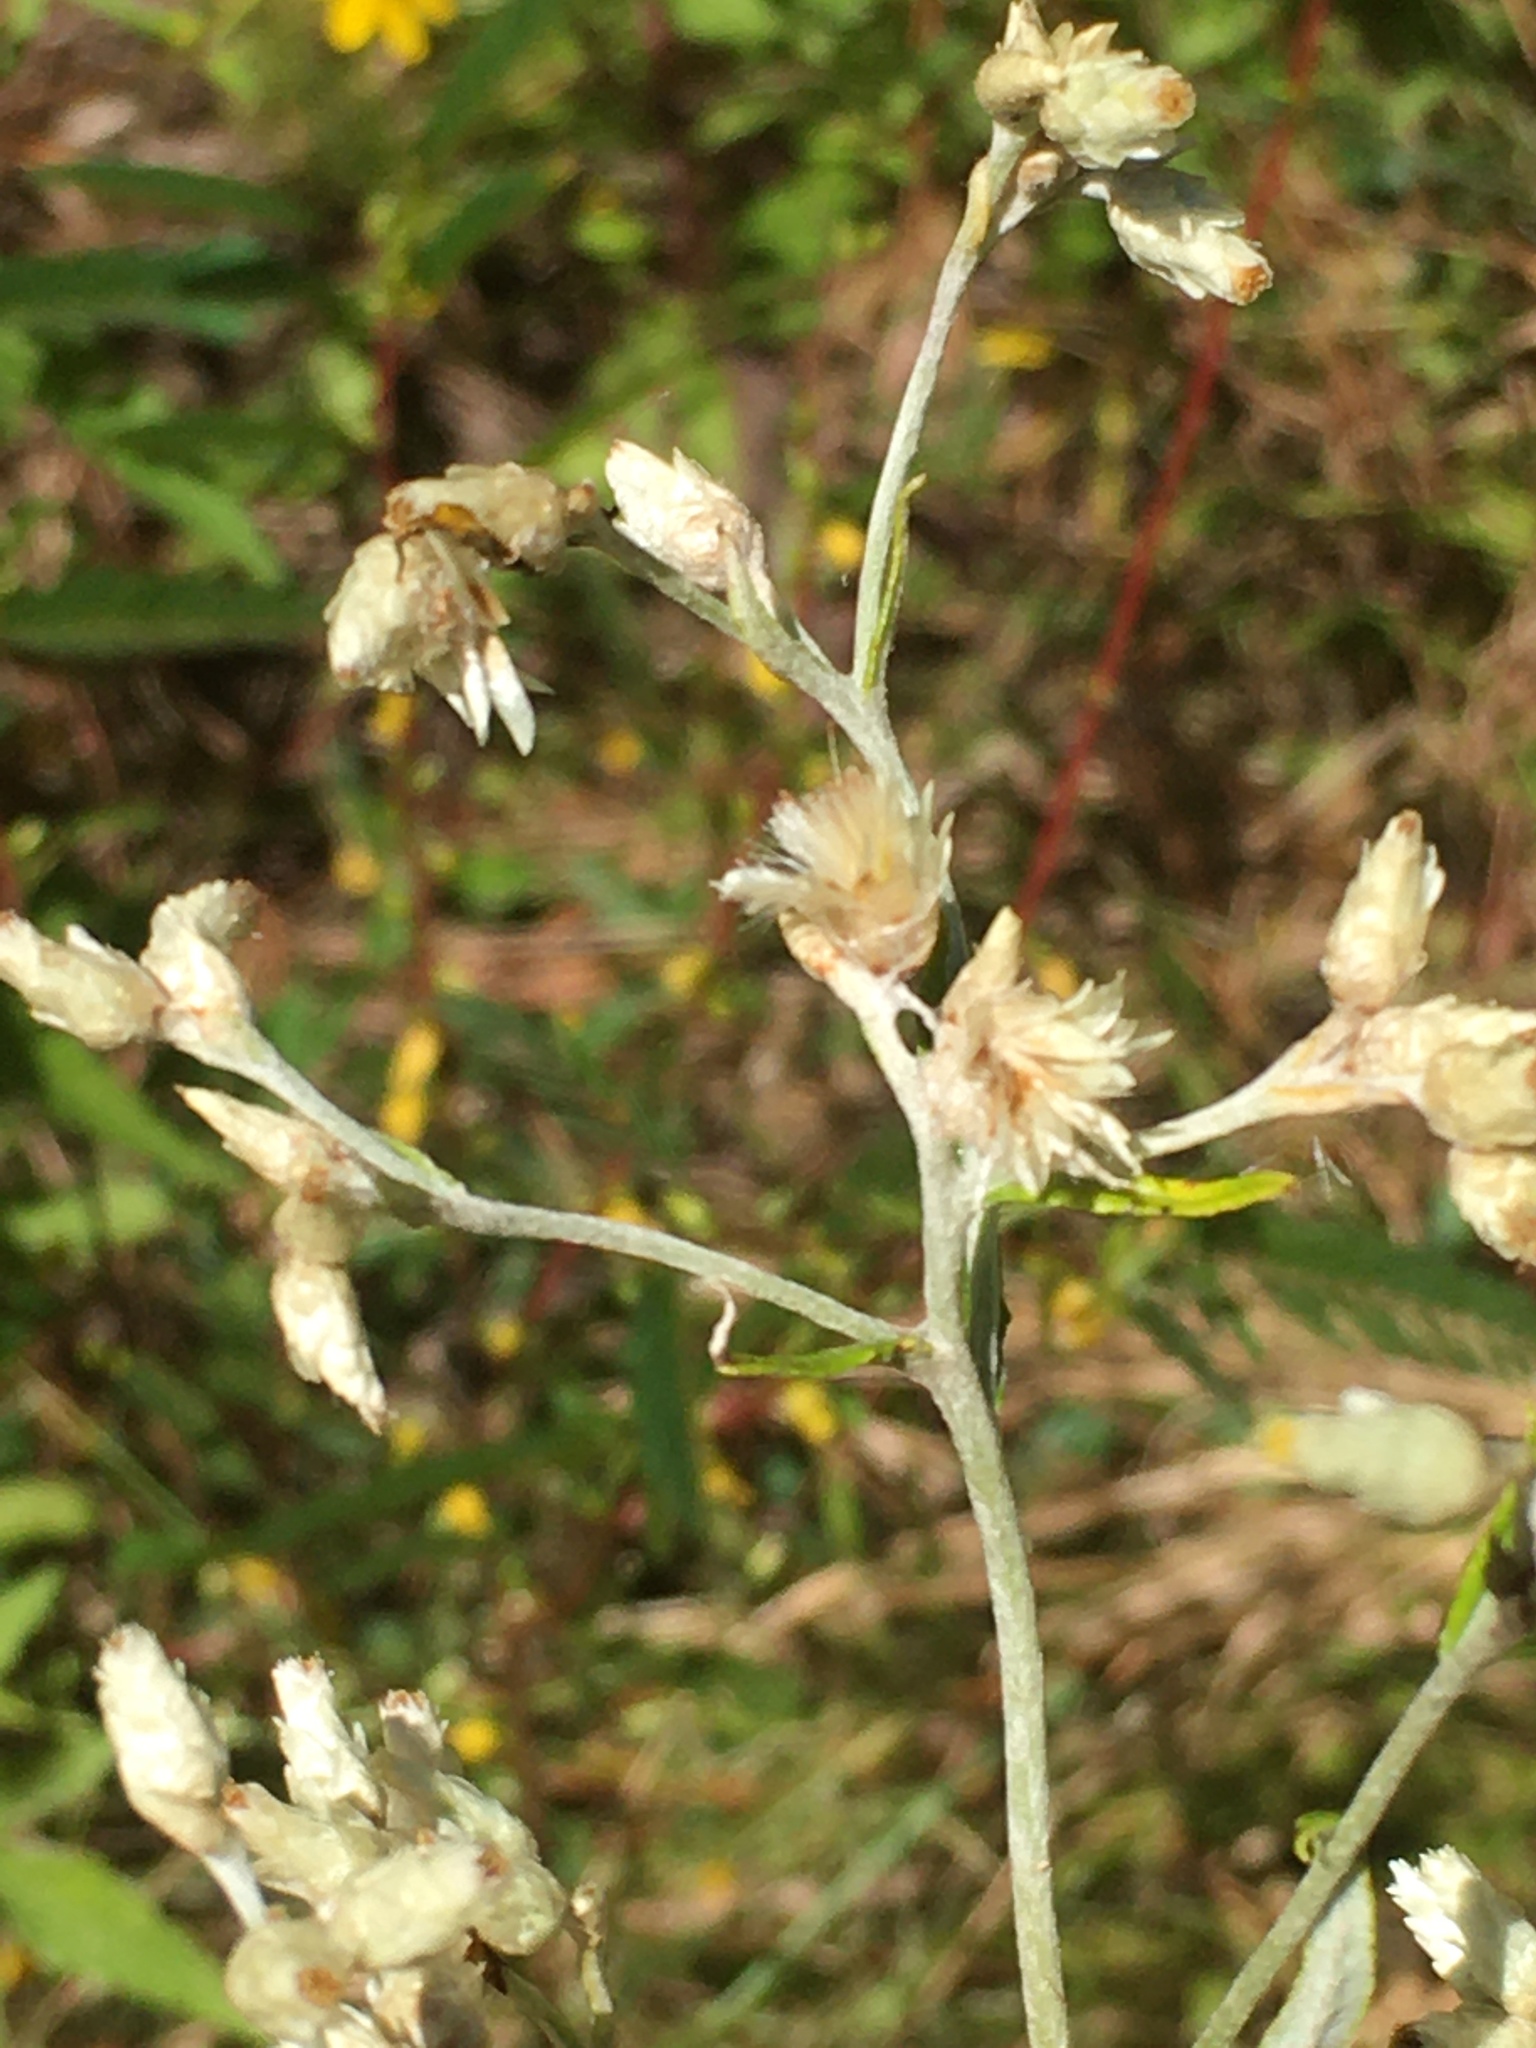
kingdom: Plantae
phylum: Tracheophyta
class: Magnoliopsida
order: Asterales
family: Asteraceae
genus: Pseudognaphalium
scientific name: Pseudognaphalium obtusifolium
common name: Eastern rabbit-tobacco
